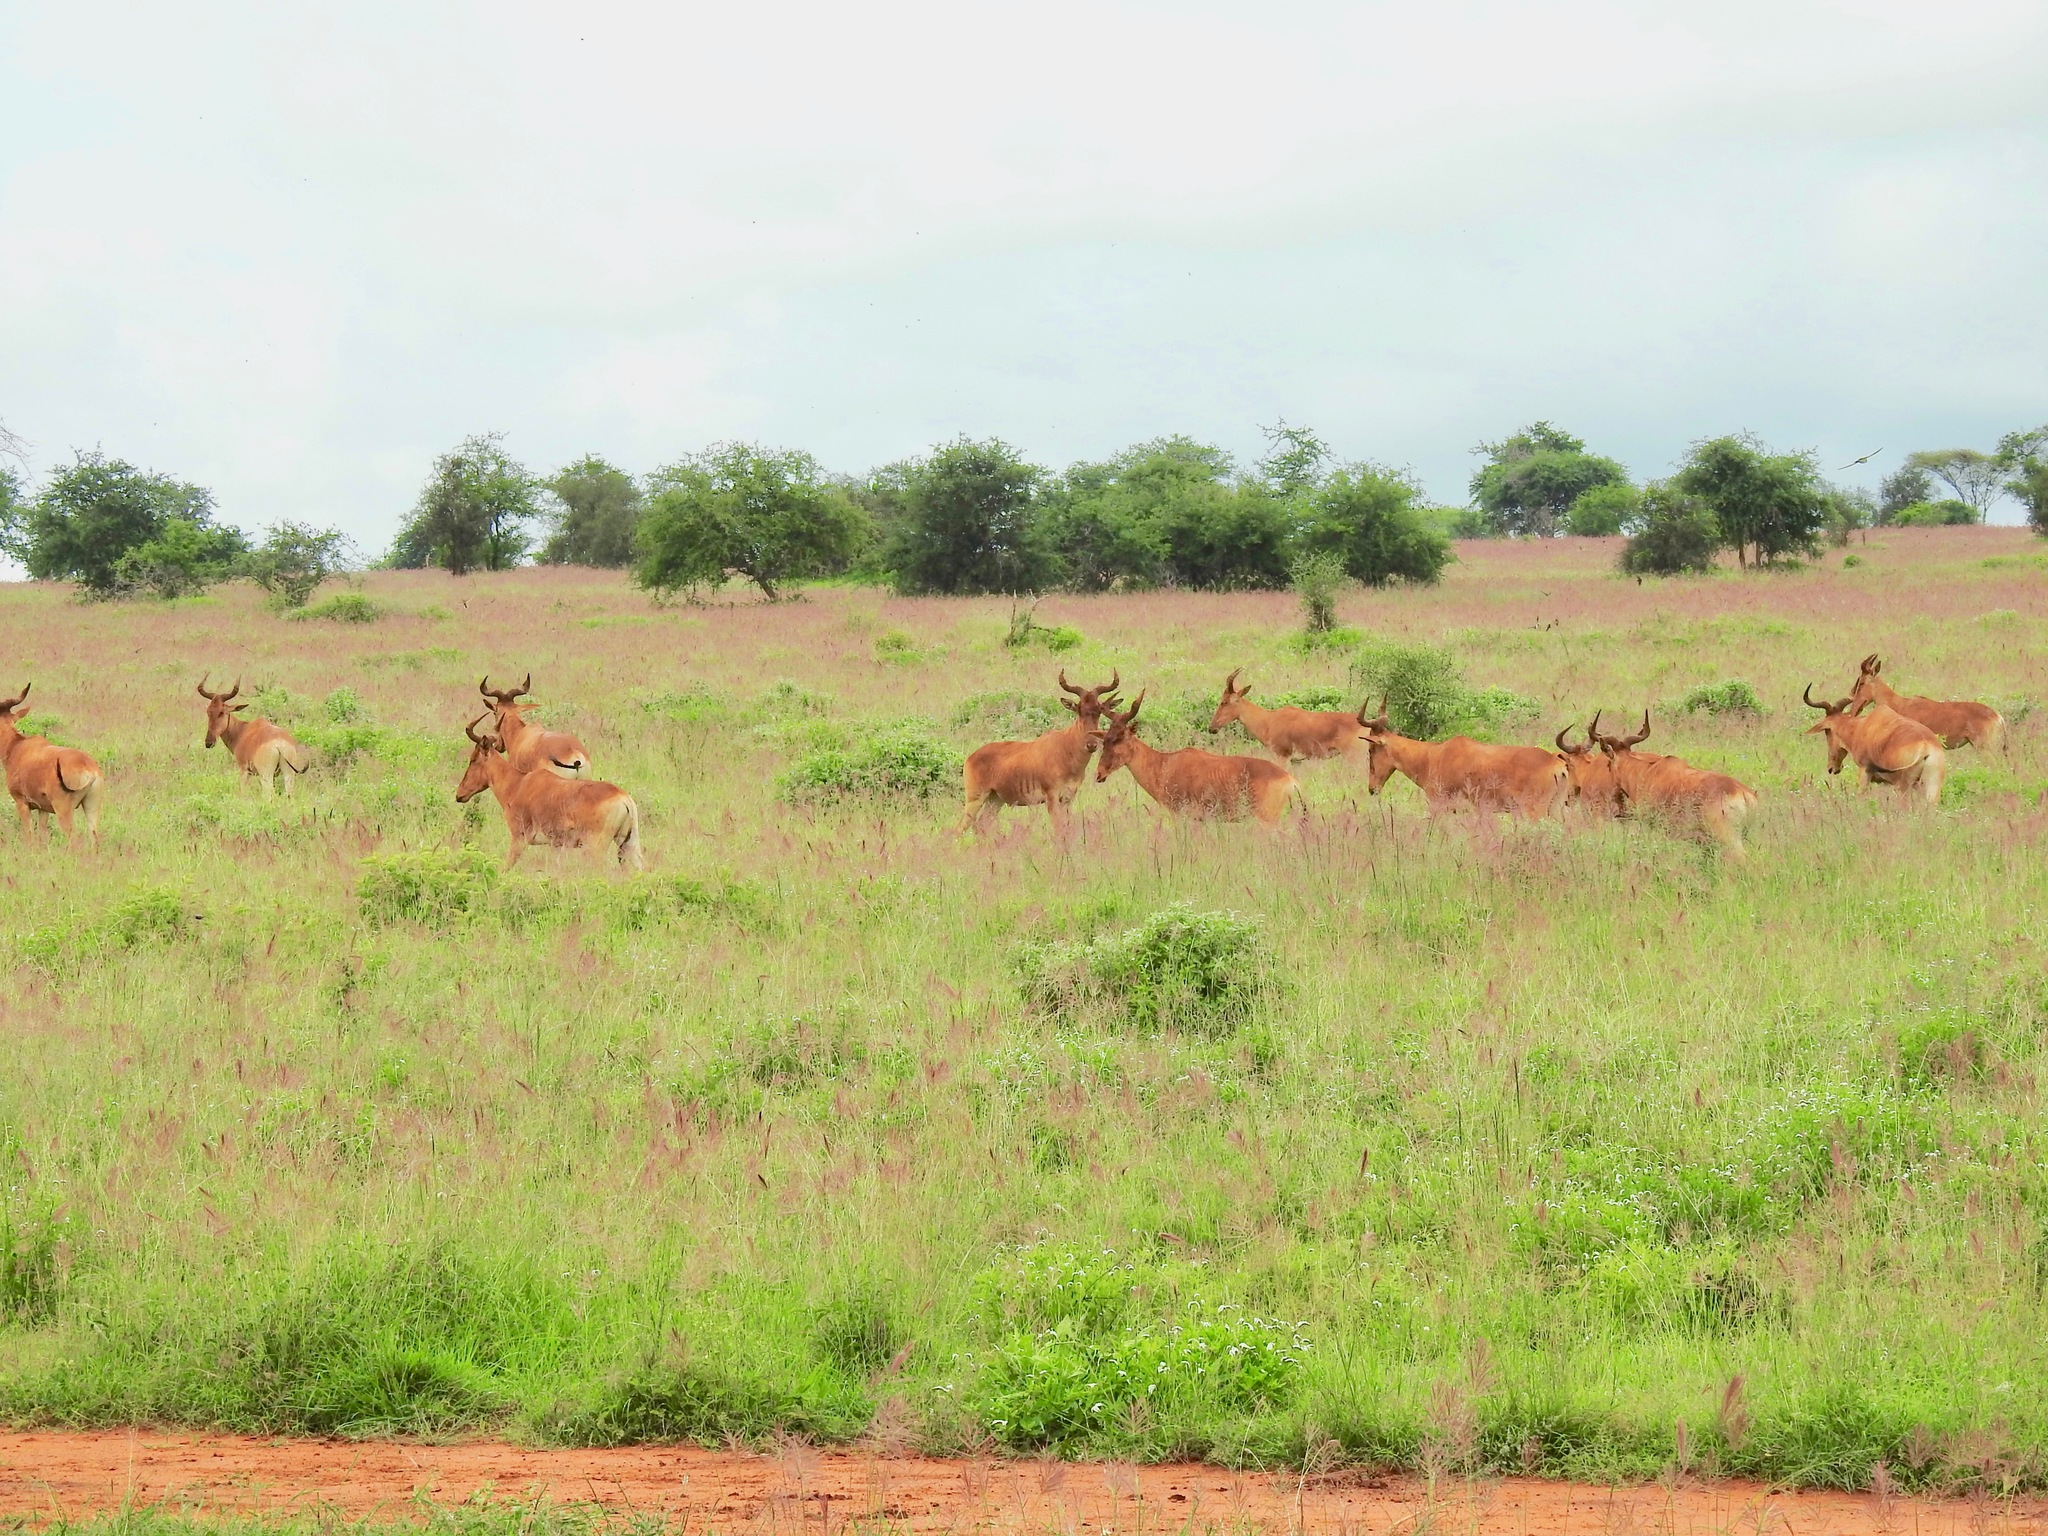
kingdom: Animalia
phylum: Chordata
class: Mammalia
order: Artiodactyla
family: Bovidae
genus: Alcelaphus
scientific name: Alcelaphus buselaphus
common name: Hartebeest
